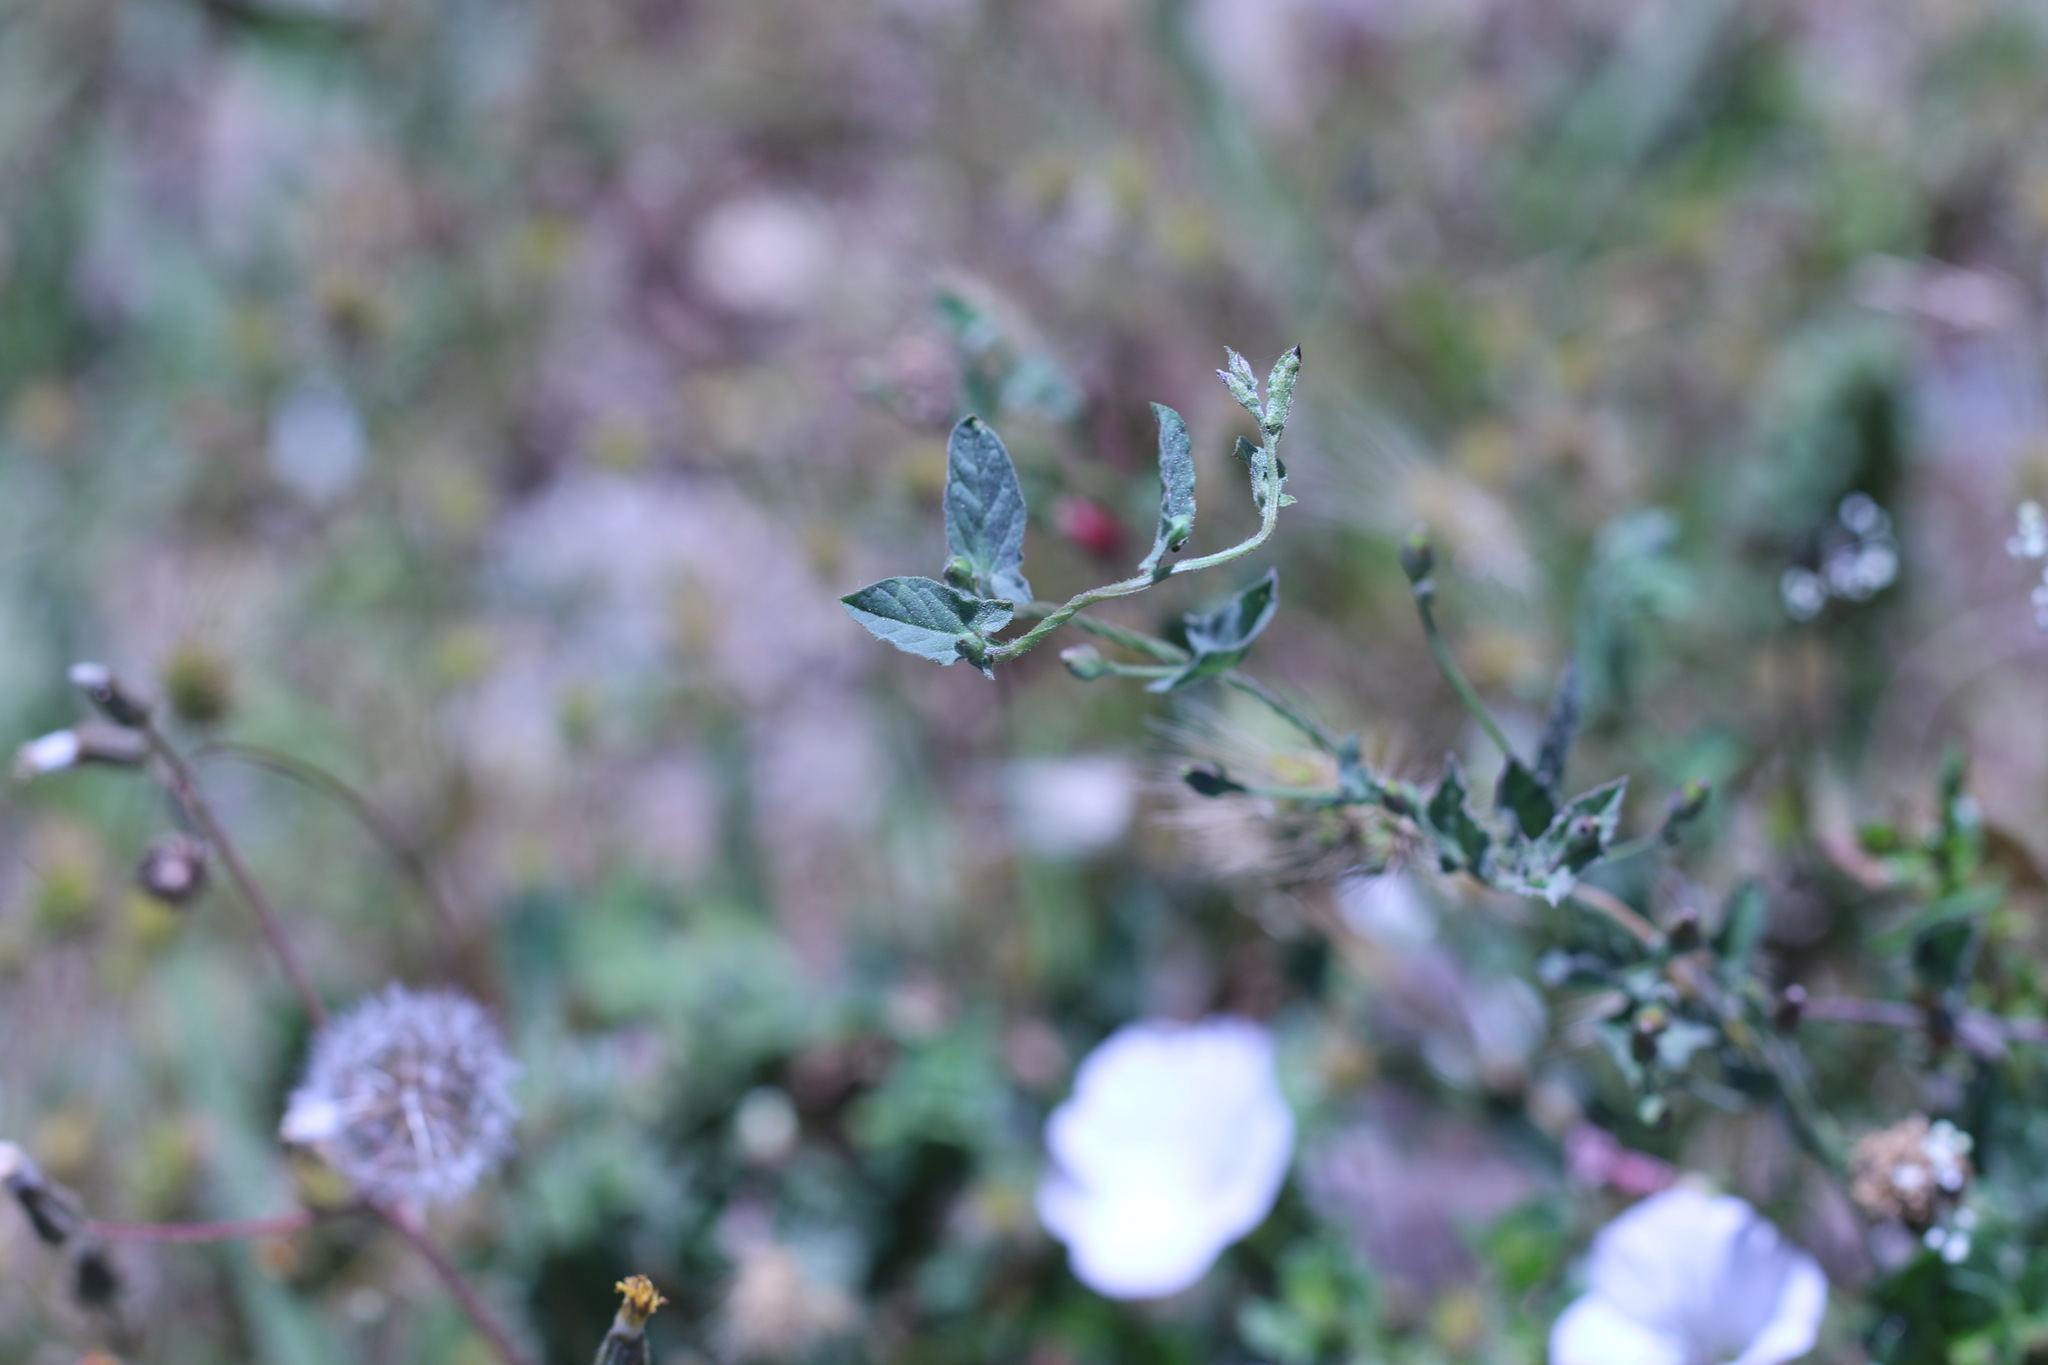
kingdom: Plantae
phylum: Tracheophyta
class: Magnoliopsida
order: Solanales
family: Convolvulaceae
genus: Convolvulus
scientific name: Convolvulus arvensis
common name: Field bindweed
